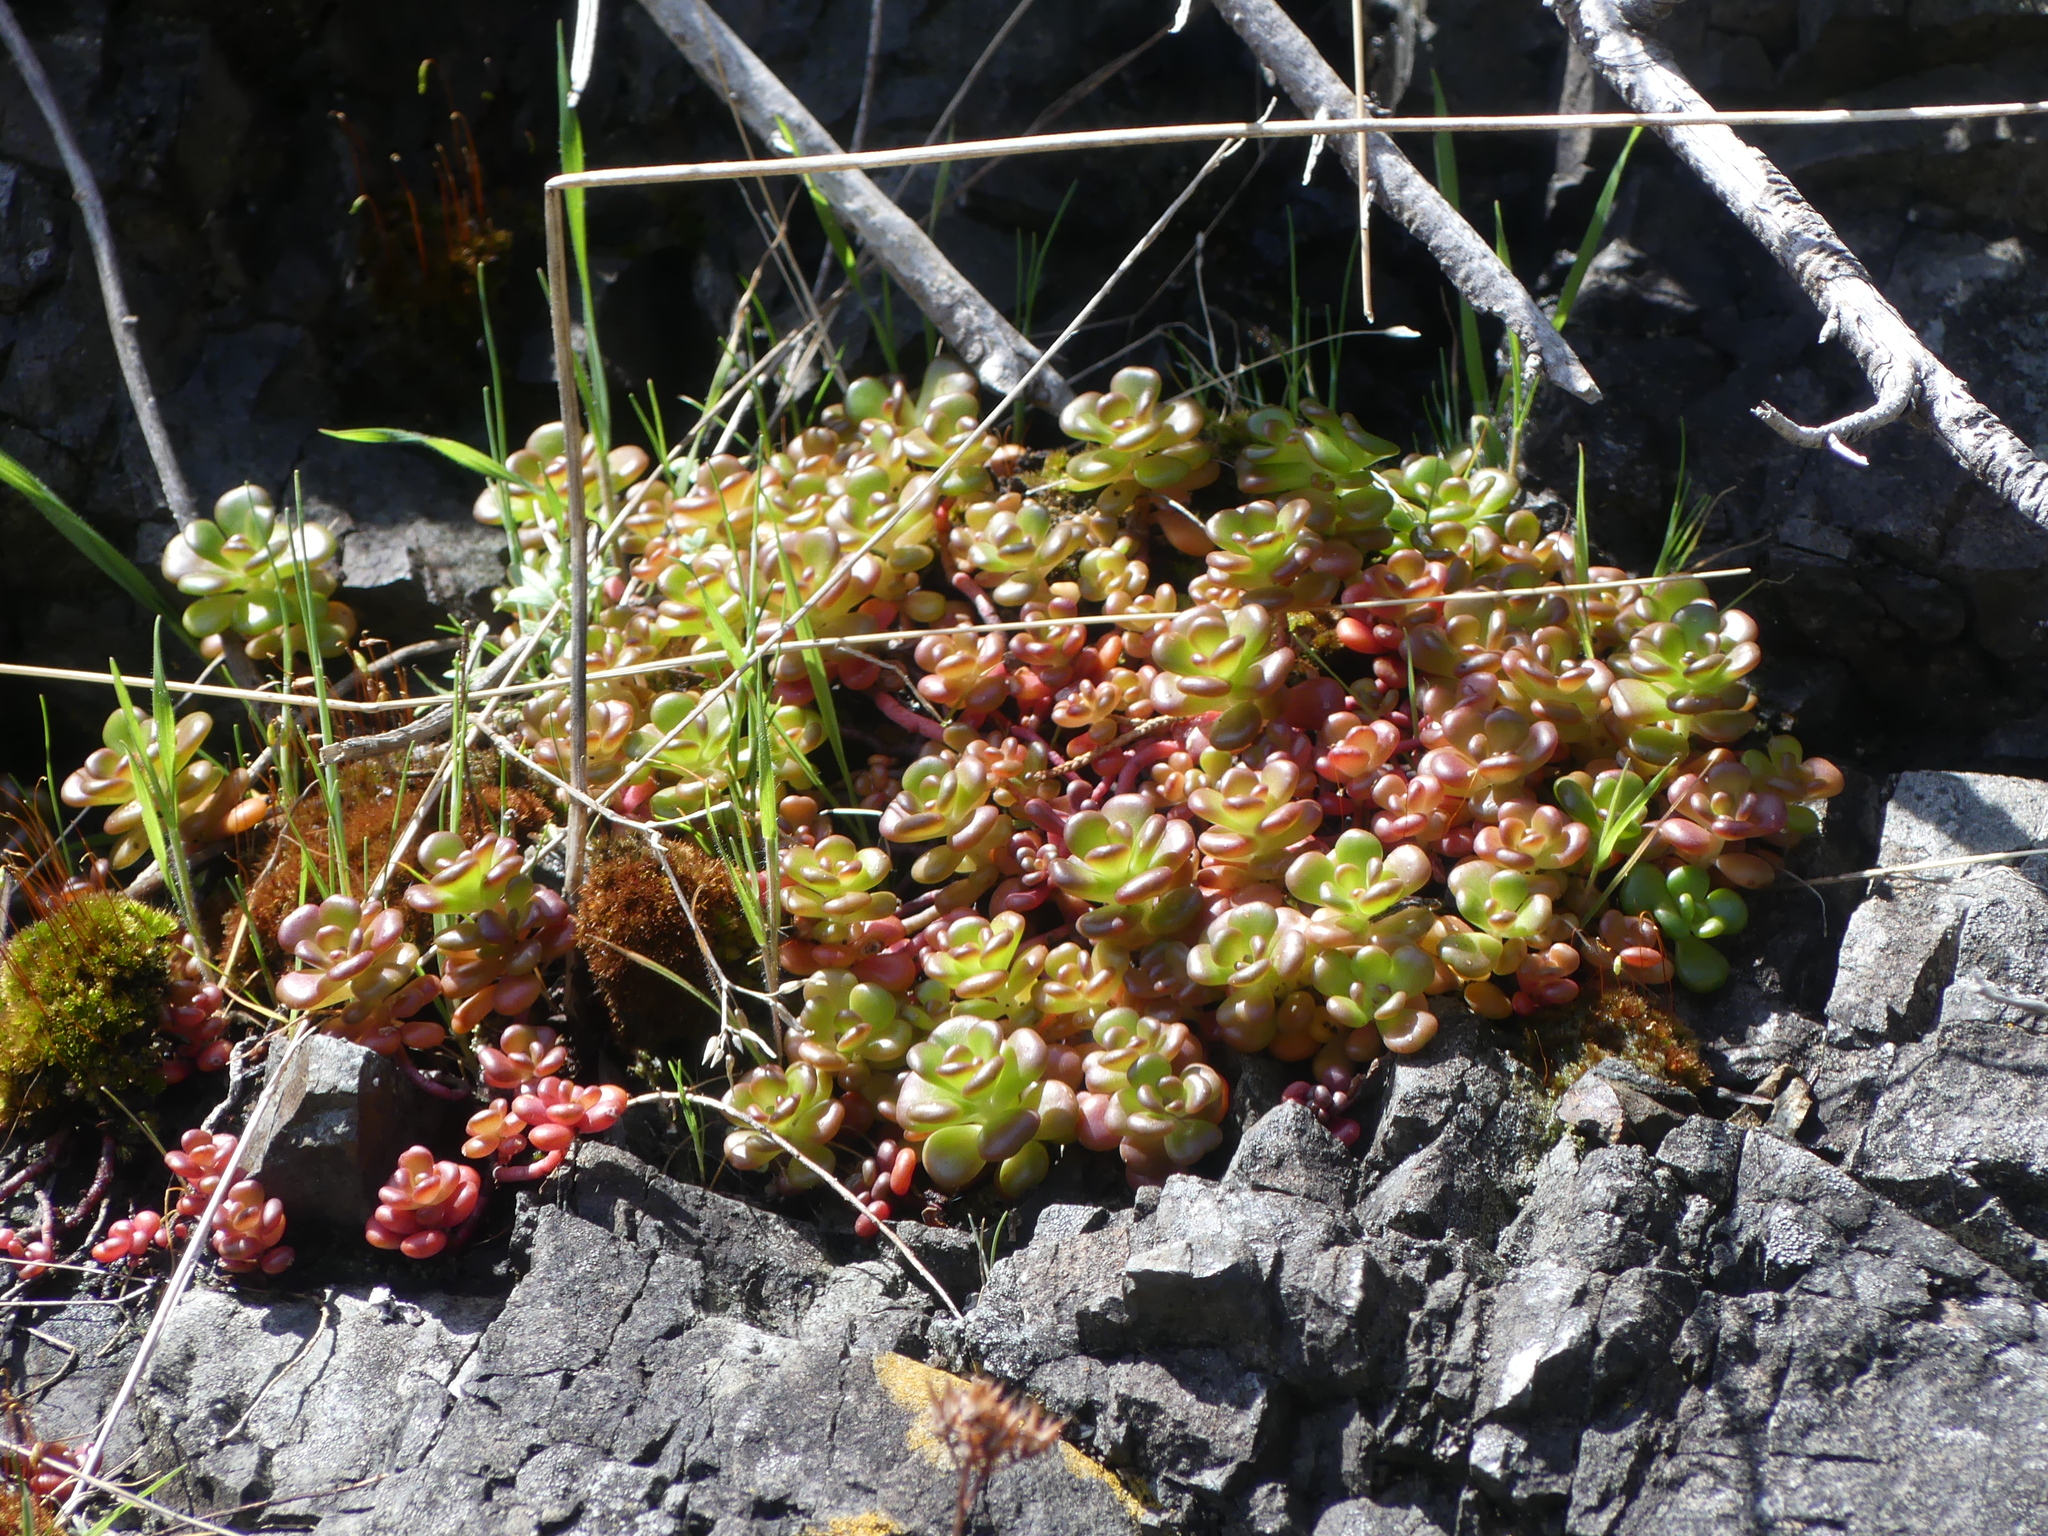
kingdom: Plantae
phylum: Tracheophyta
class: Magnoliopsida
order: Saxifragales
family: Crassulaceae
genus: Sedum
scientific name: Sedum oreganum
